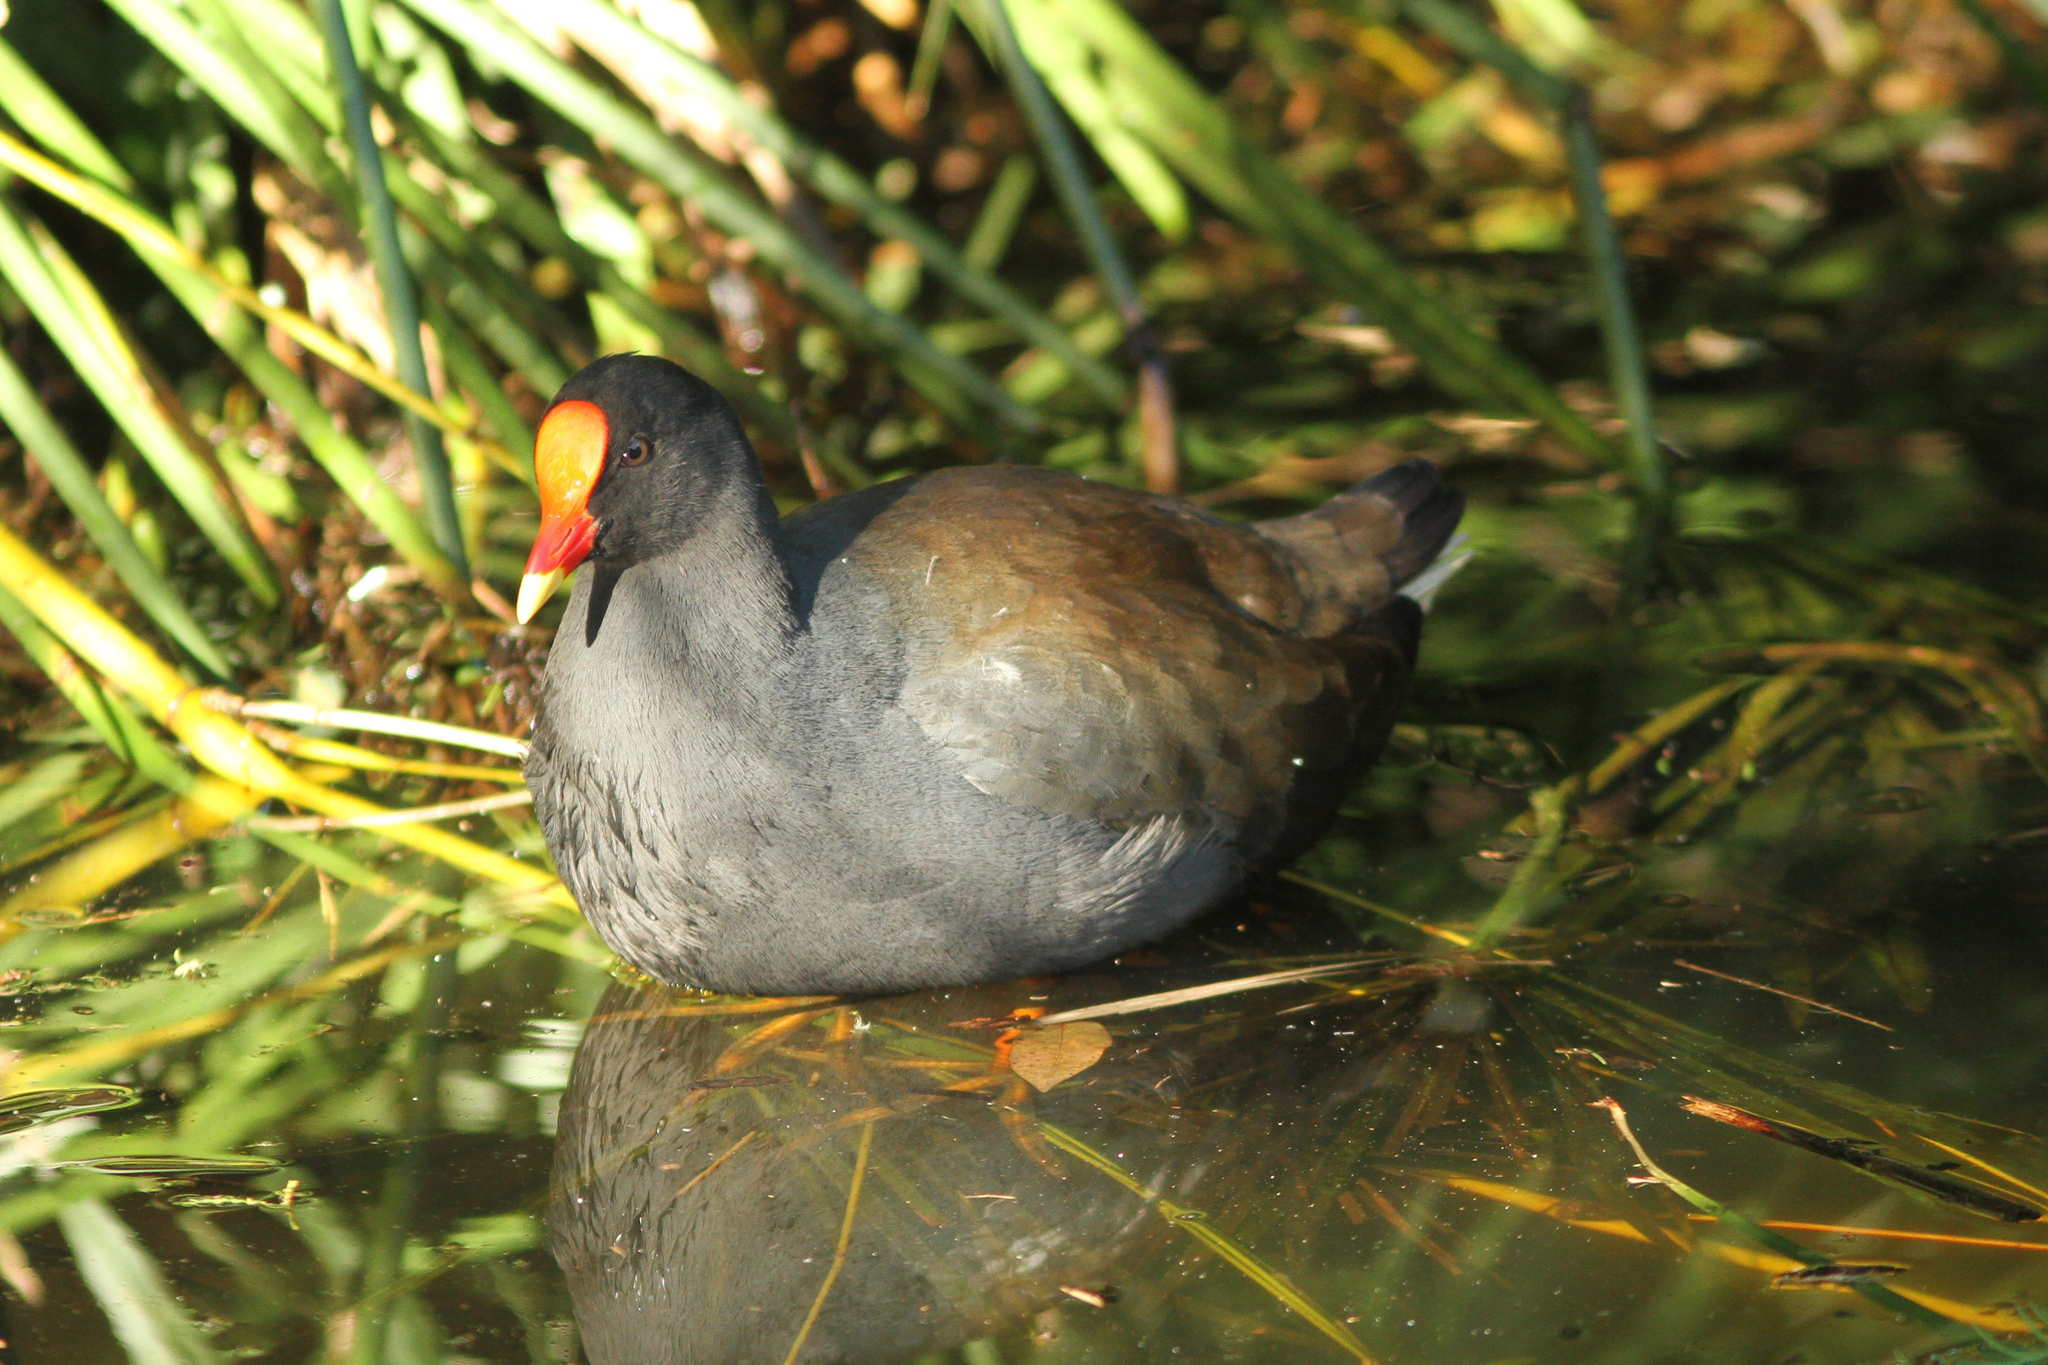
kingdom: Animalia
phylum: Chordata
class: Aves
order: Gruiformes
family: Rallidae
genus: Gallinula
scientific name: Gallinula tenebrosa
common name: Dusky moorhen
